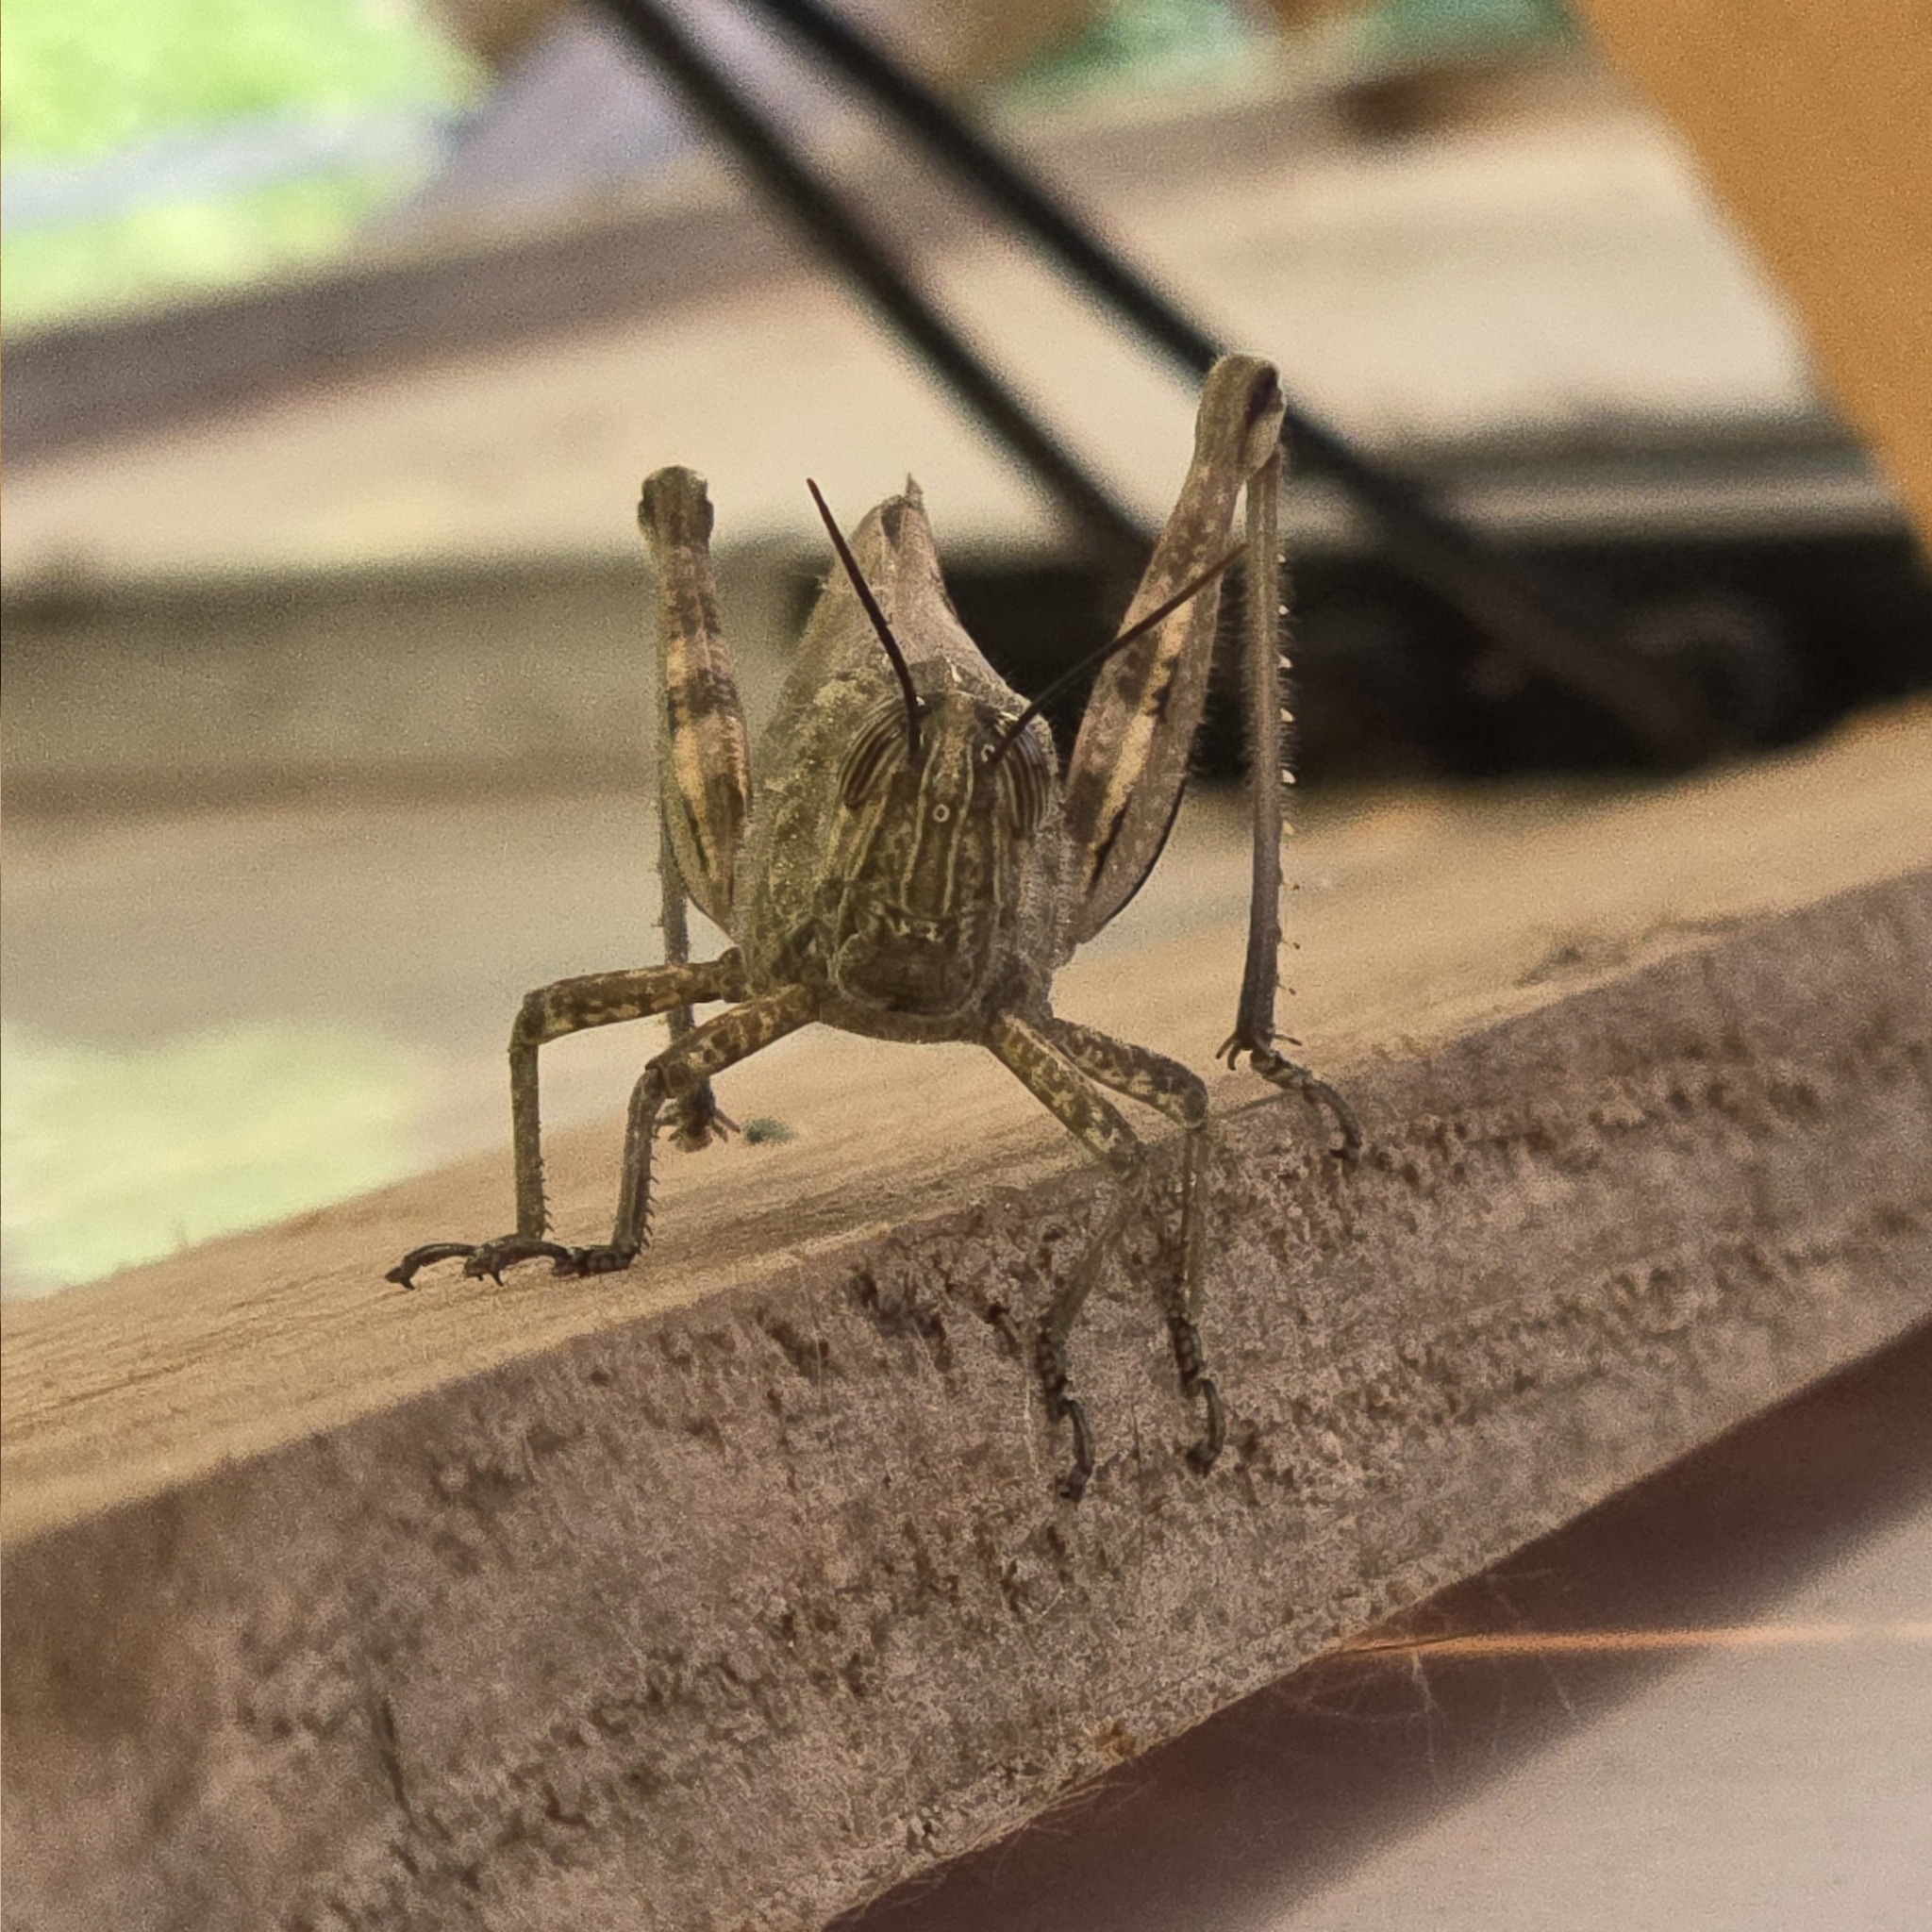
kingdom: Animalia
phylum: Arthropoda
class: Insecta
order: Orthoptera
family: Acrididae
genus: Anacridium
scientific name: Anacridium aegyptium
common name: Egyptian grasshopper
